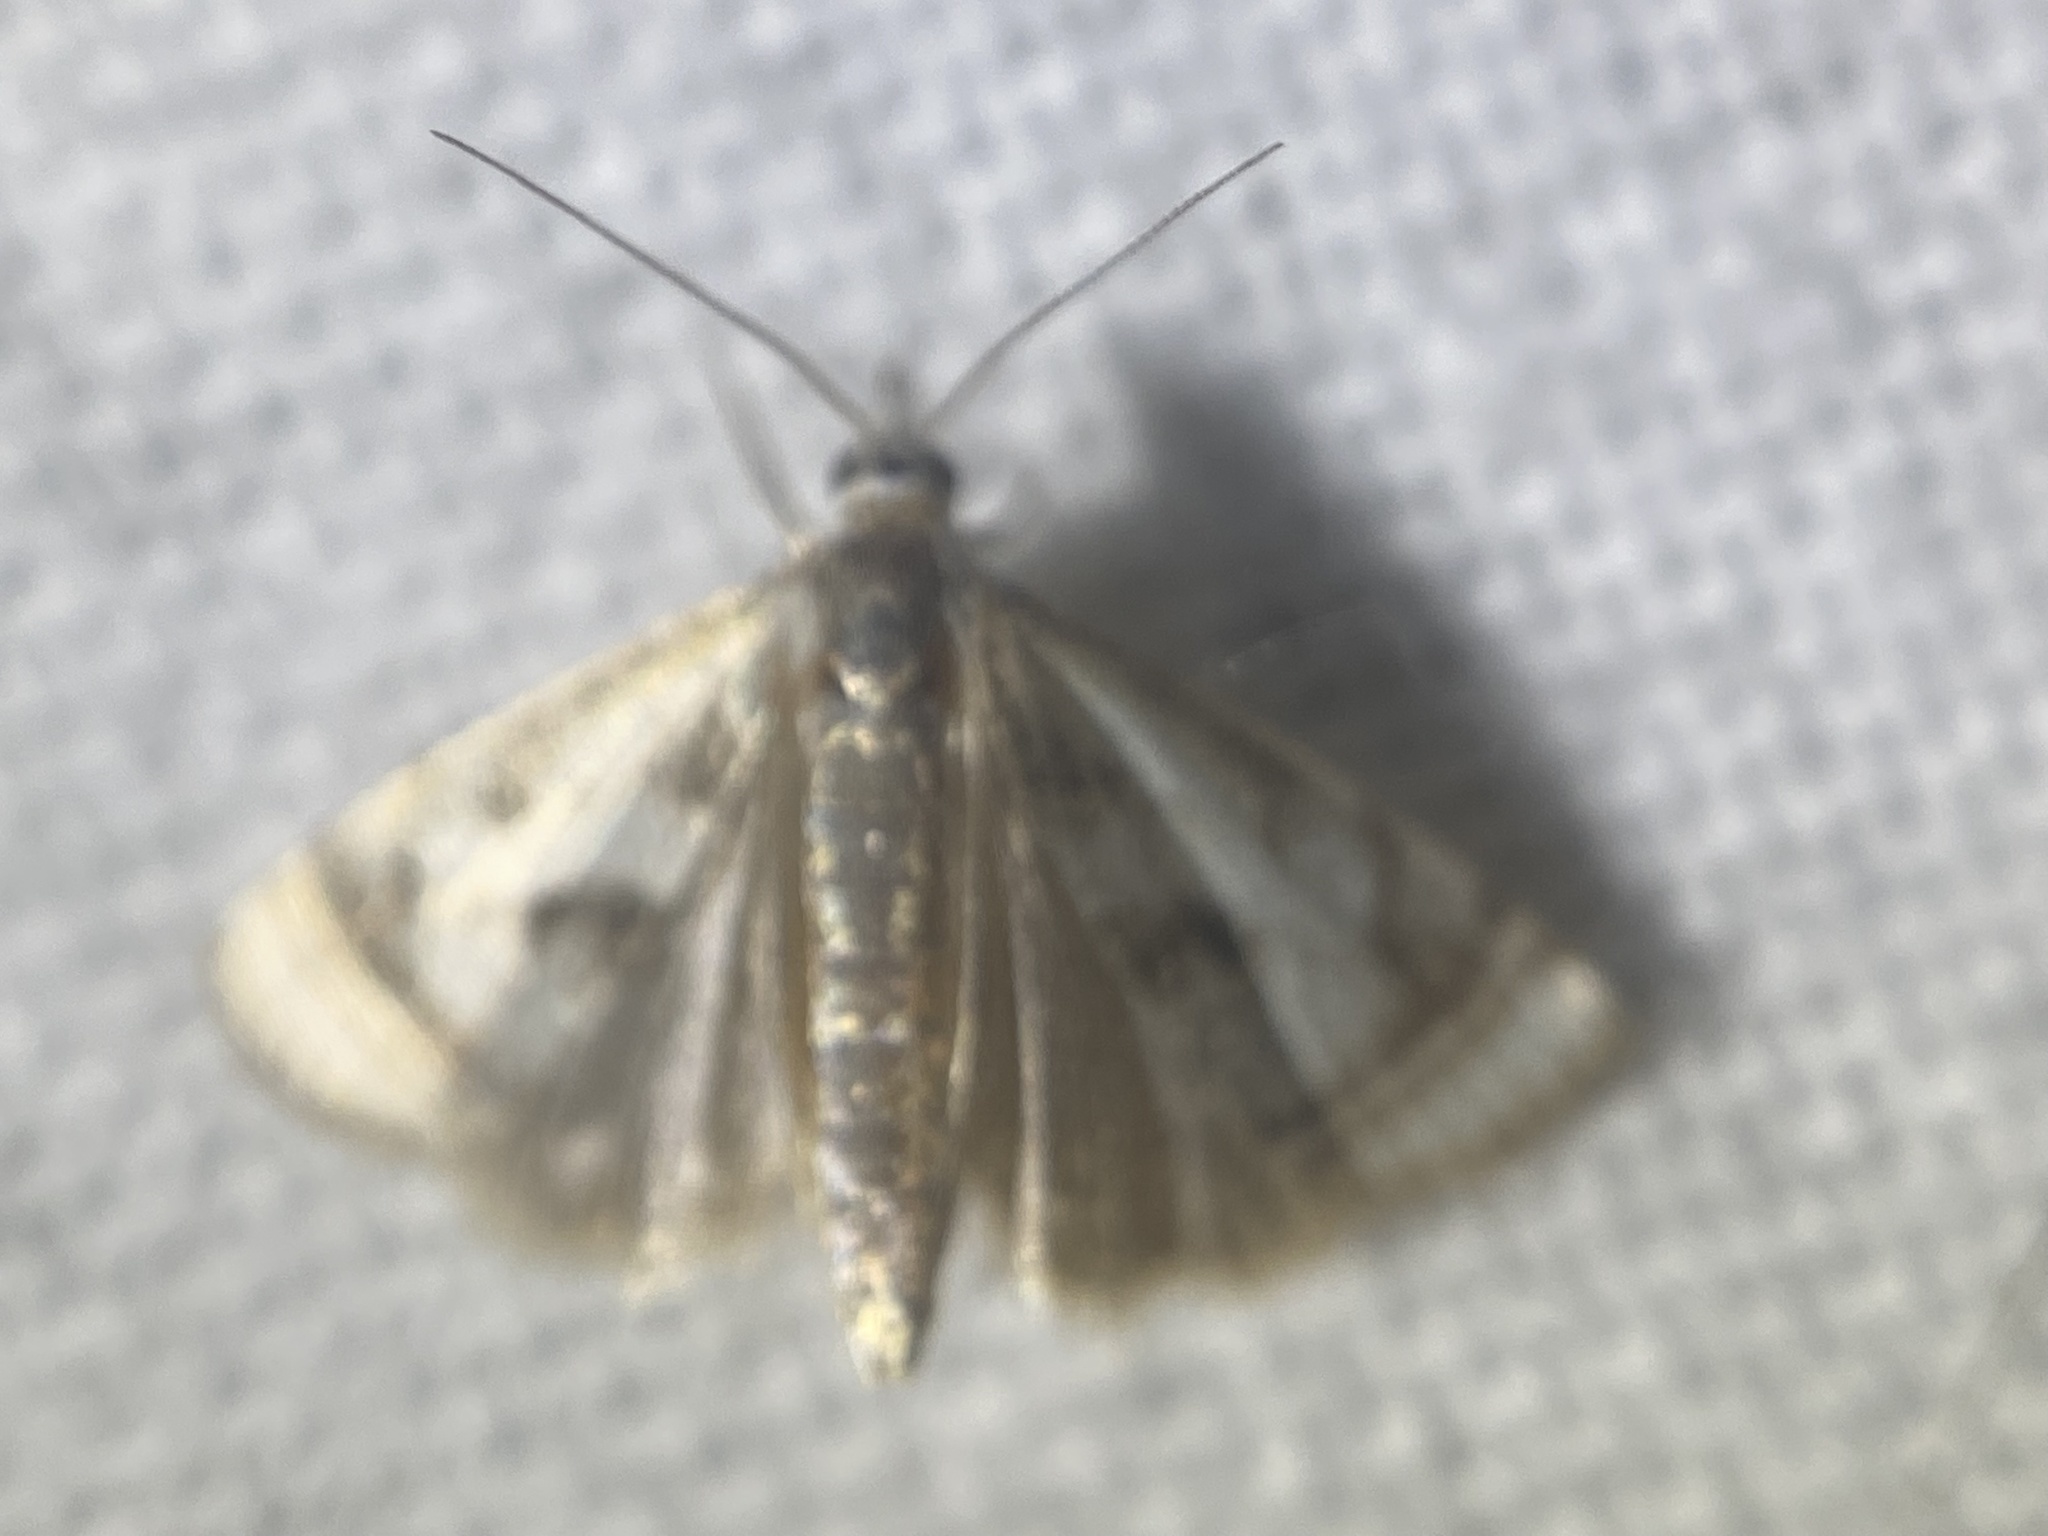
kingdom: Animalia
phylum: Arthropoda
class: Insecta
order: Lepidoptera
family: Crambidae
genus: Microcrambus
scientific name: Microcrambus elegans
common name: Elegant grass-veneer
